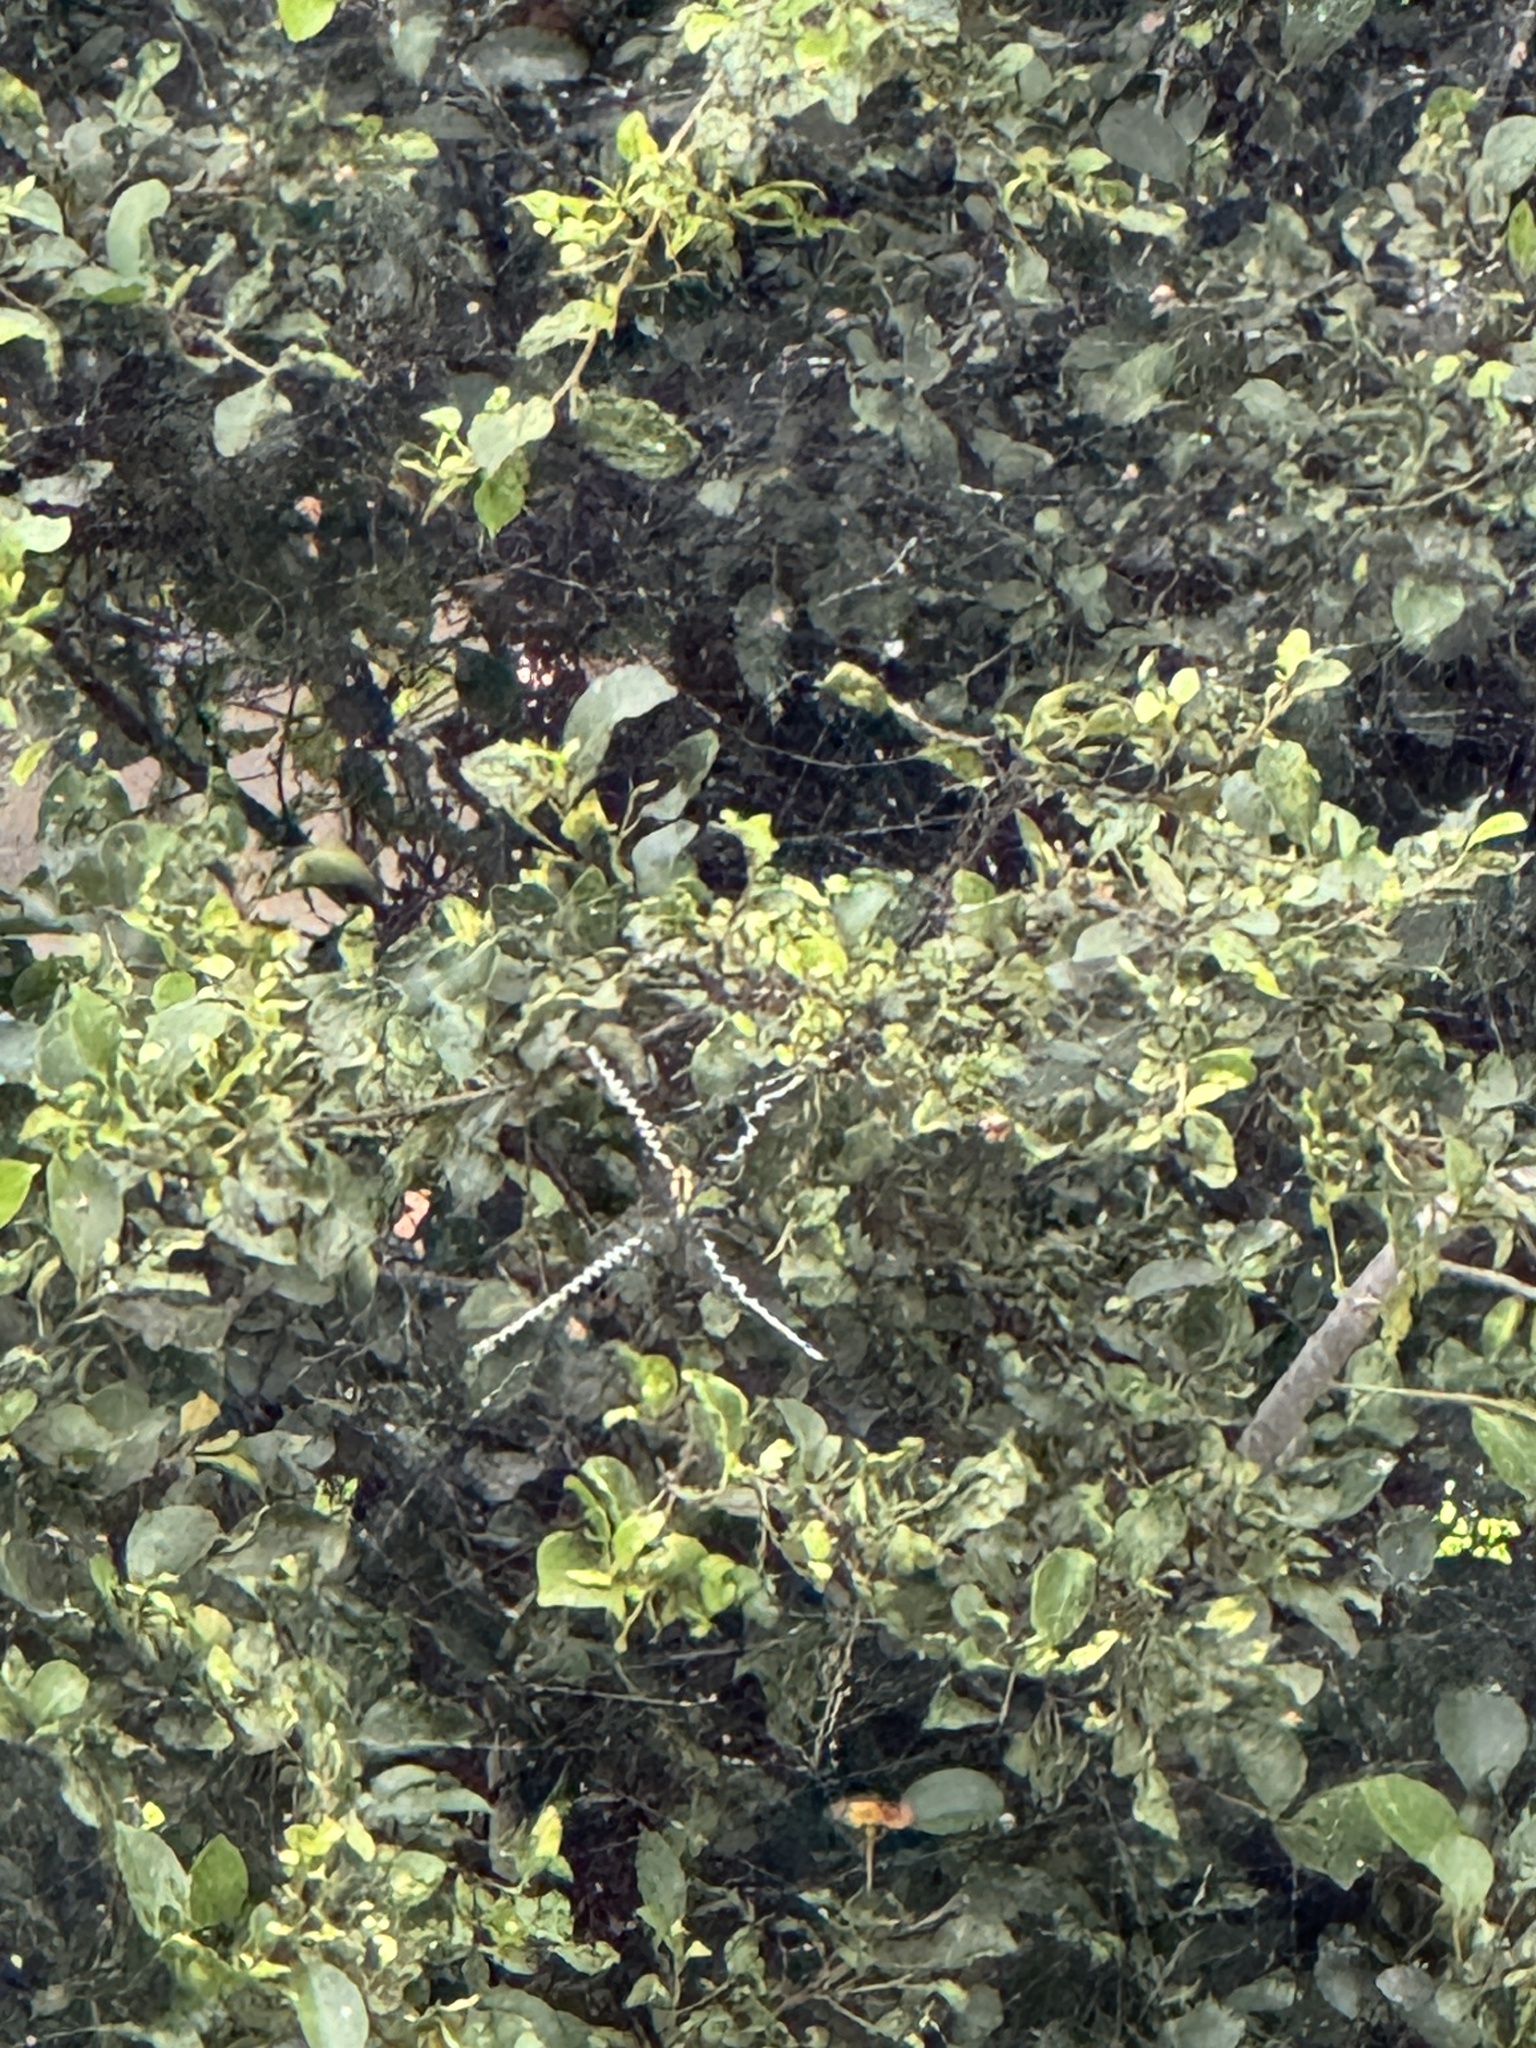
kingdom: Animalia
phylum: Arthropoda
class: Arachnida
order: Araneae
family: Araneidae
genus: Argiope
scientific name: Argiope appensa
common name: Garden spider
